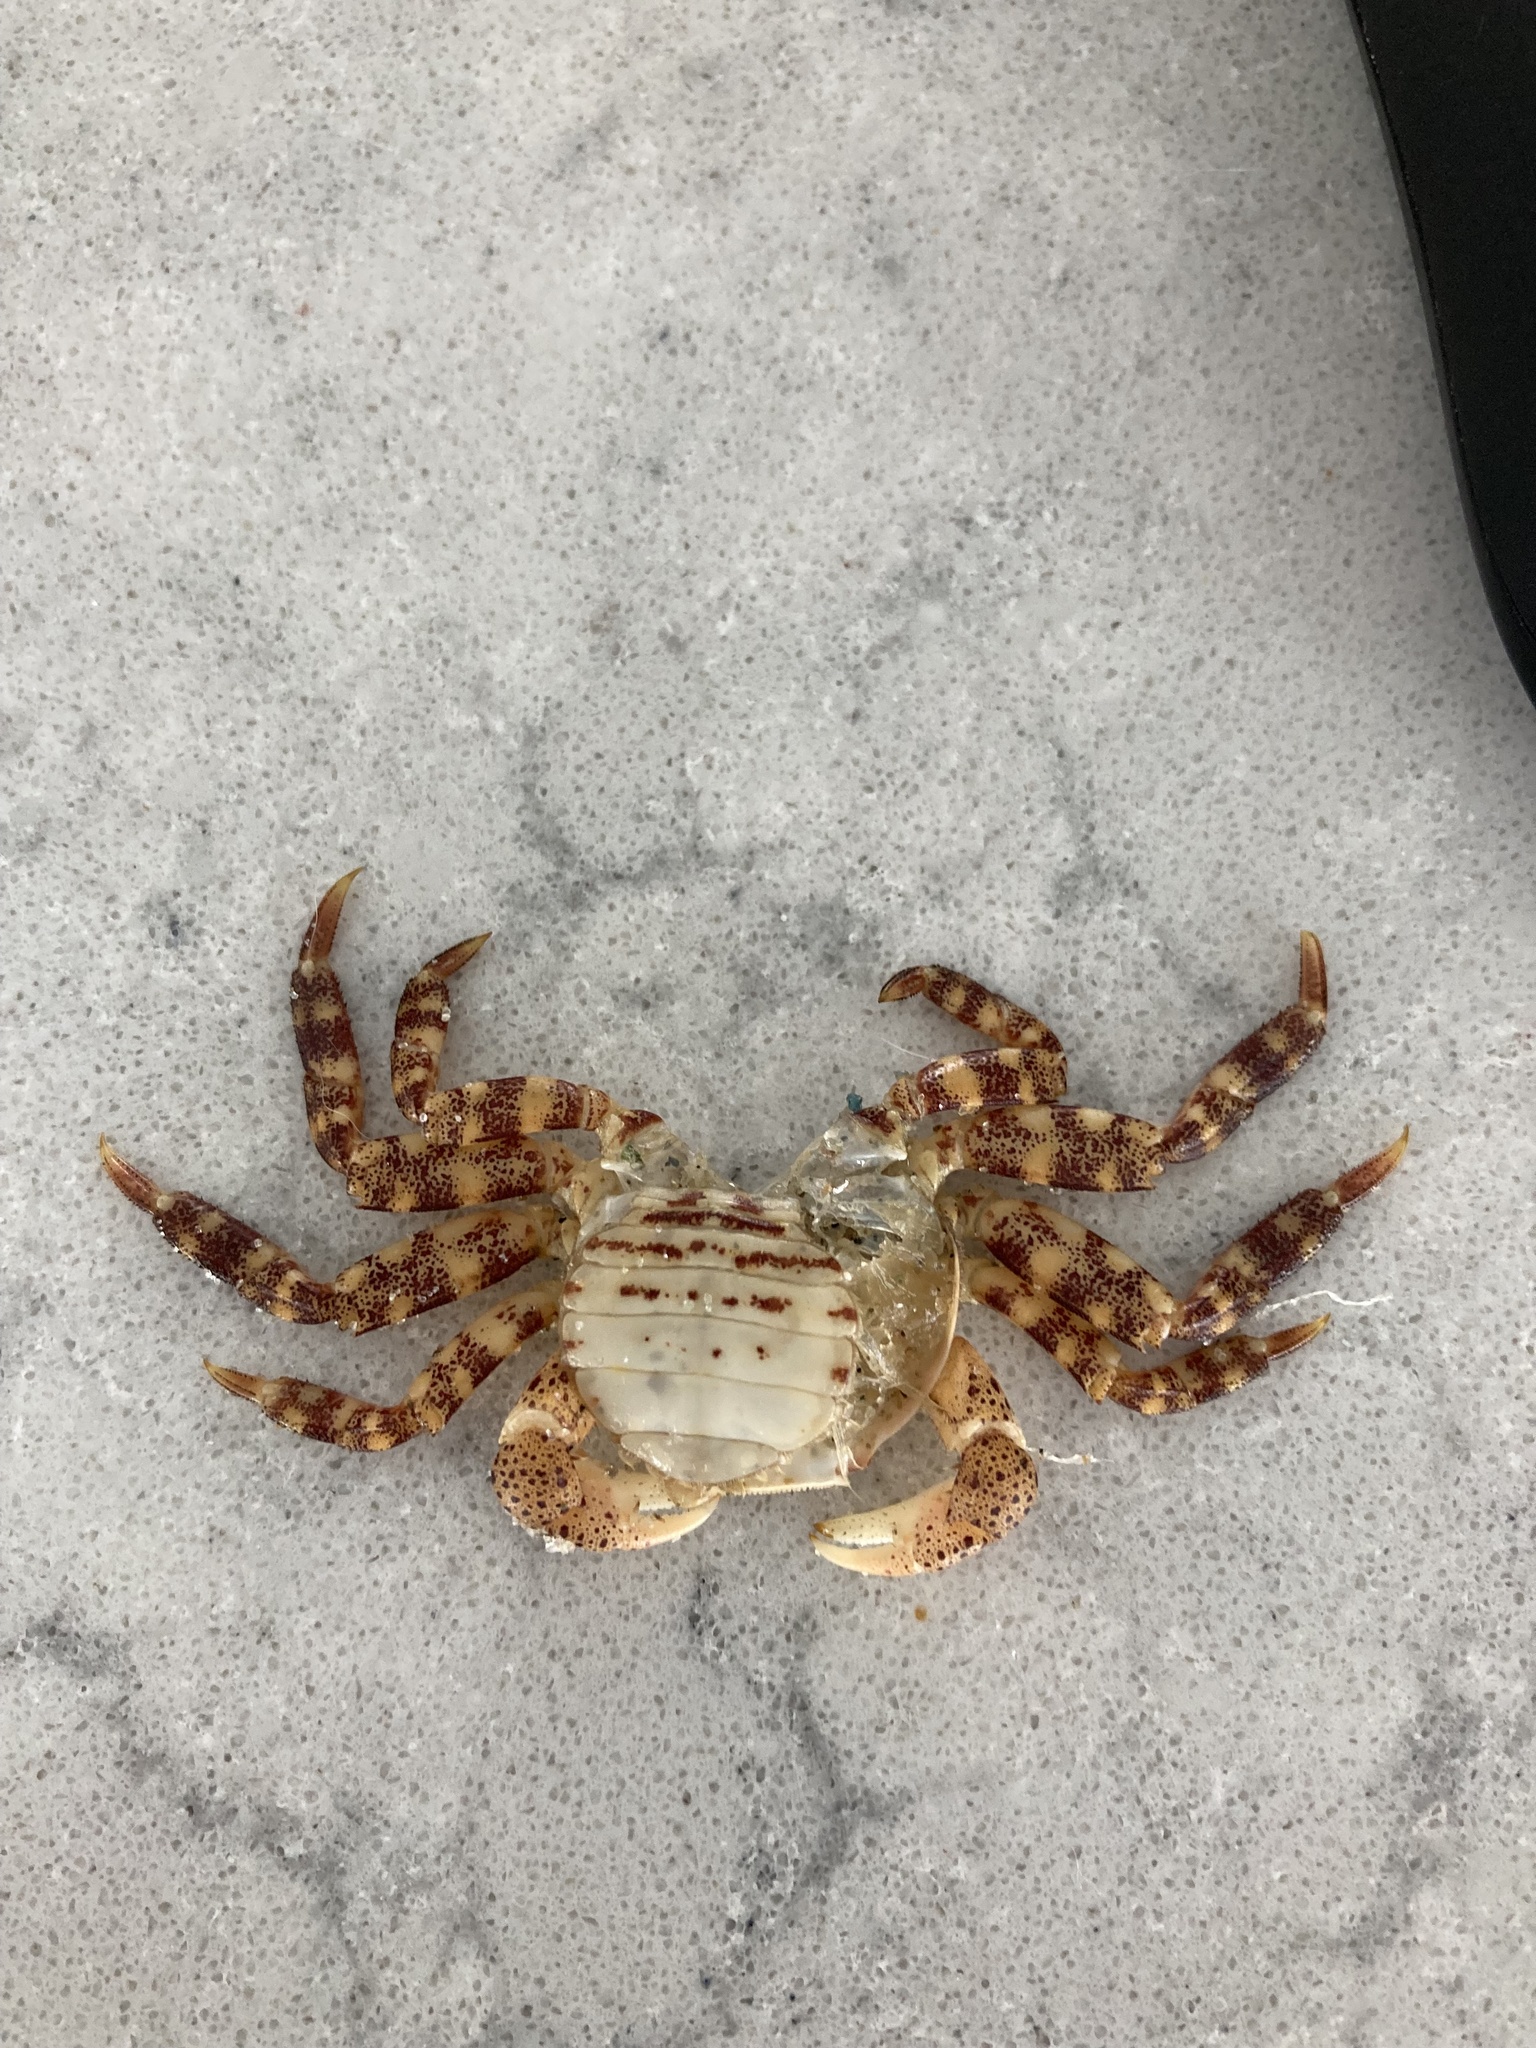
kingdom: Animalia
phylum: Arthropoda
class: Malacostraca
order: Decapoda
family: Varunidae
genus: Hemigrapsus
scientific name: Hemigrapsus sanguineus
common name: Asian shore crab
